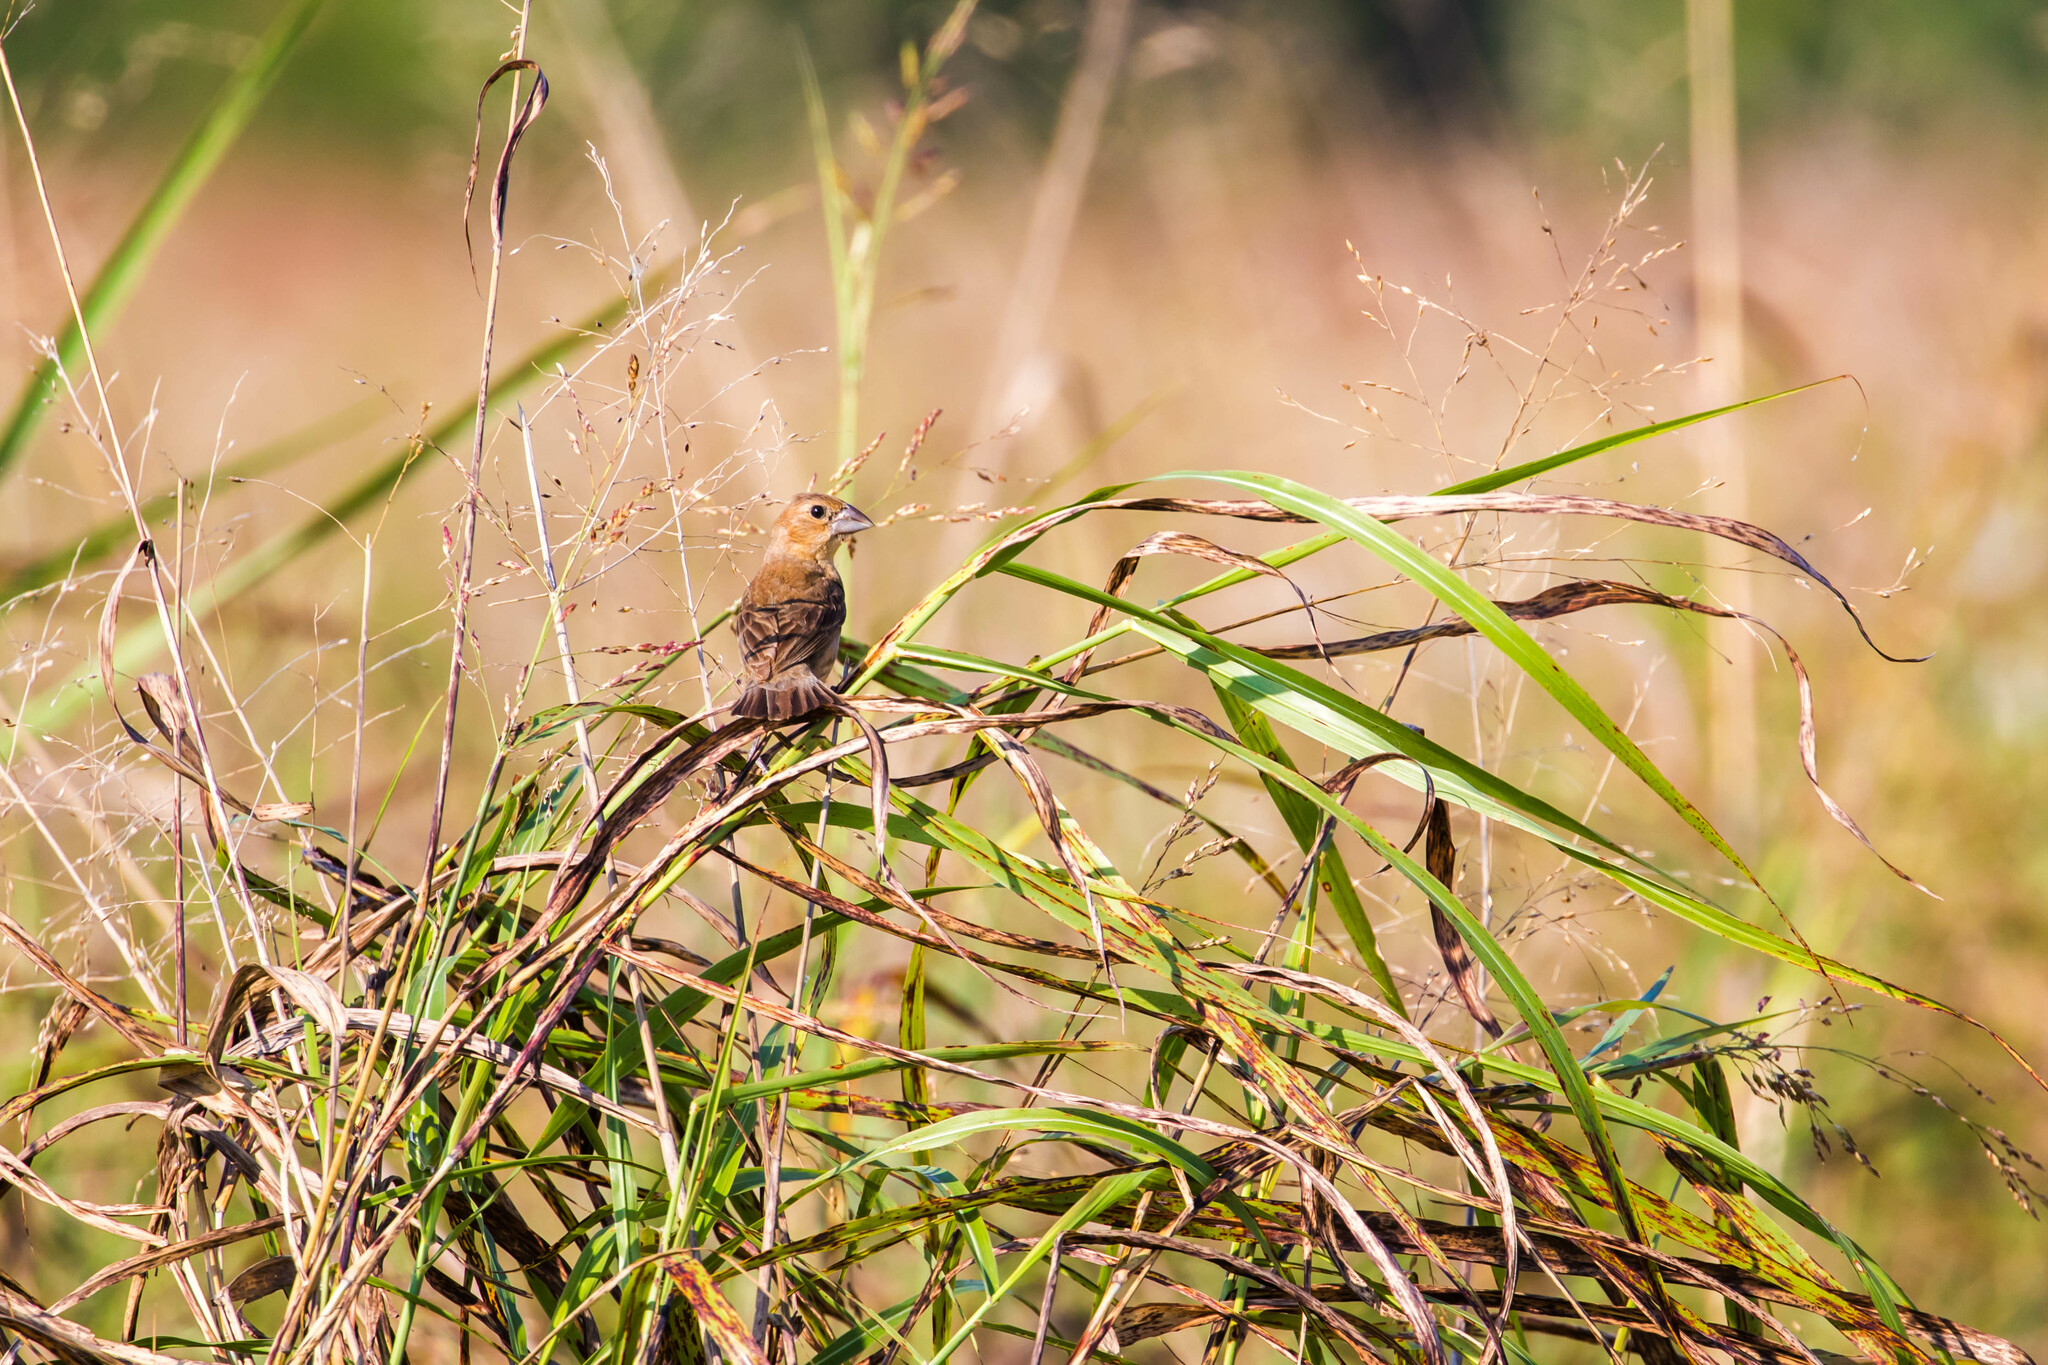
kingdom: Animalia
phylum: Chordata
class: Aves
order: Passeriformes
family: Cardinalidae
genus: Passerina
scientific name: Passerina caerulea
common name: Blue grosbeak
